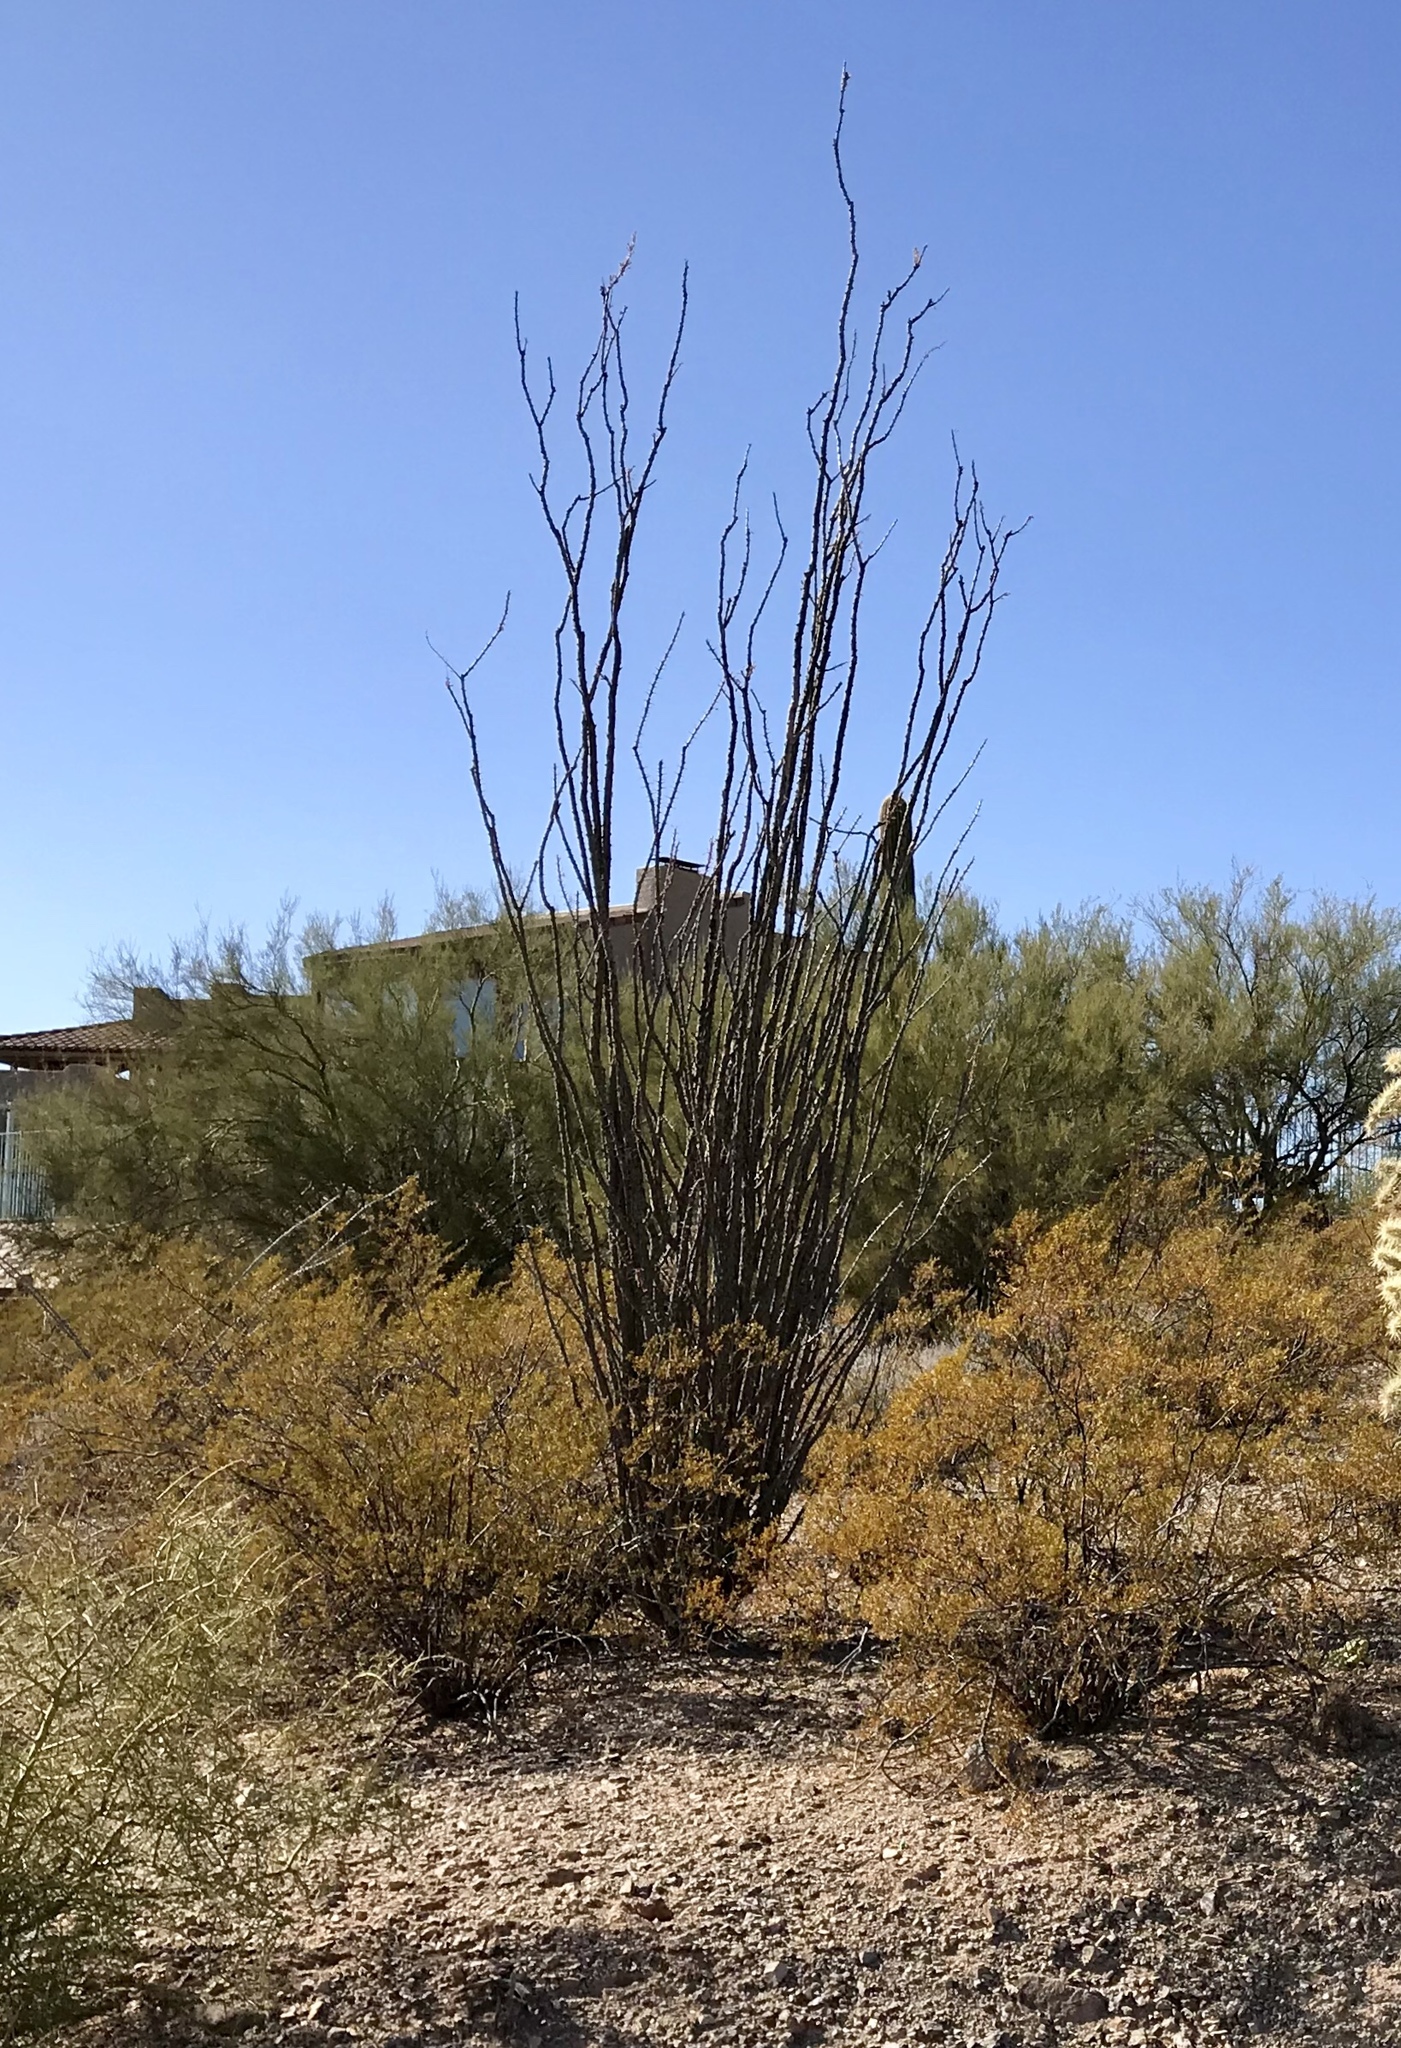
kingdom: Plantae
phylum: Tracheophyta
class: Magnoliopsida
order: Ericales
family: Fouquieriaceae
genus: Fouquieria
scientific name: Fouquieria splendens
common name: Vine-cactus
